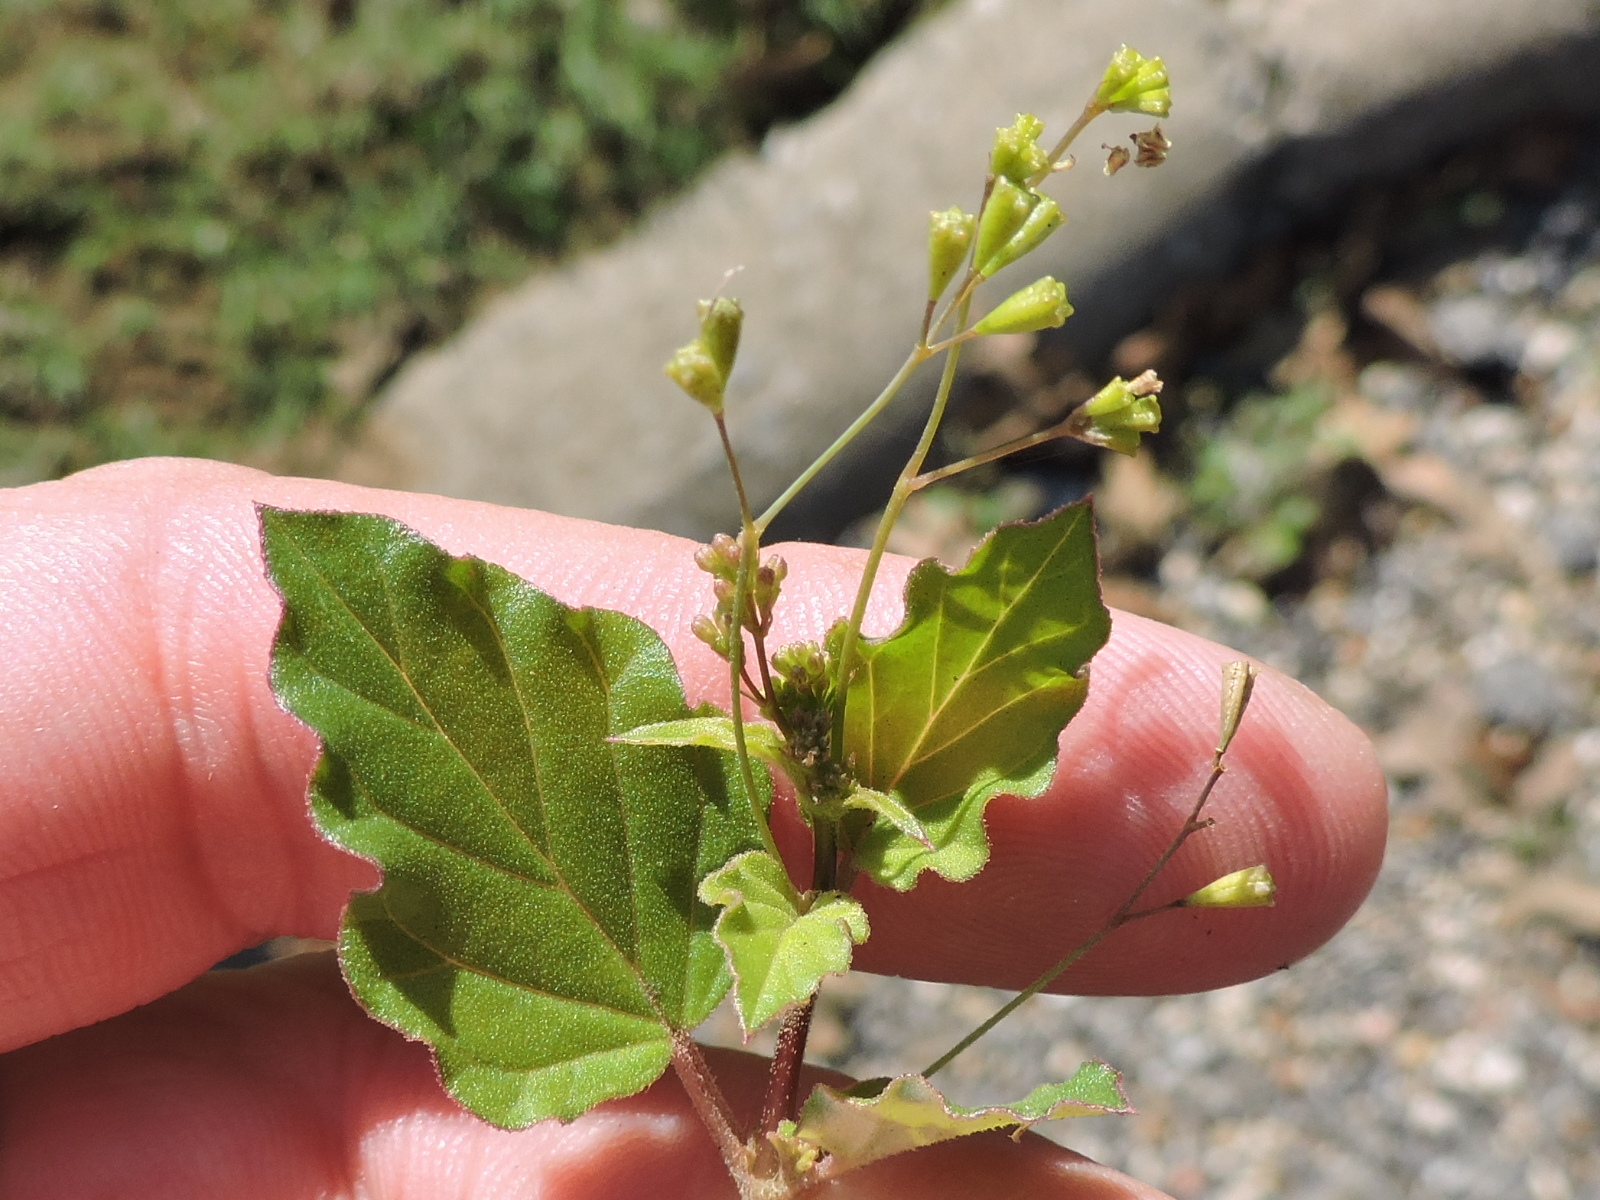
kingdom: Plantae
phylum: Tracheophyta
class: Magnoliopsida
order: Caryophyllales
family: Nyctaginaceae
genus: Boerhavia
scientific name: Boerhavia erecta
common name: Erect spiderling
